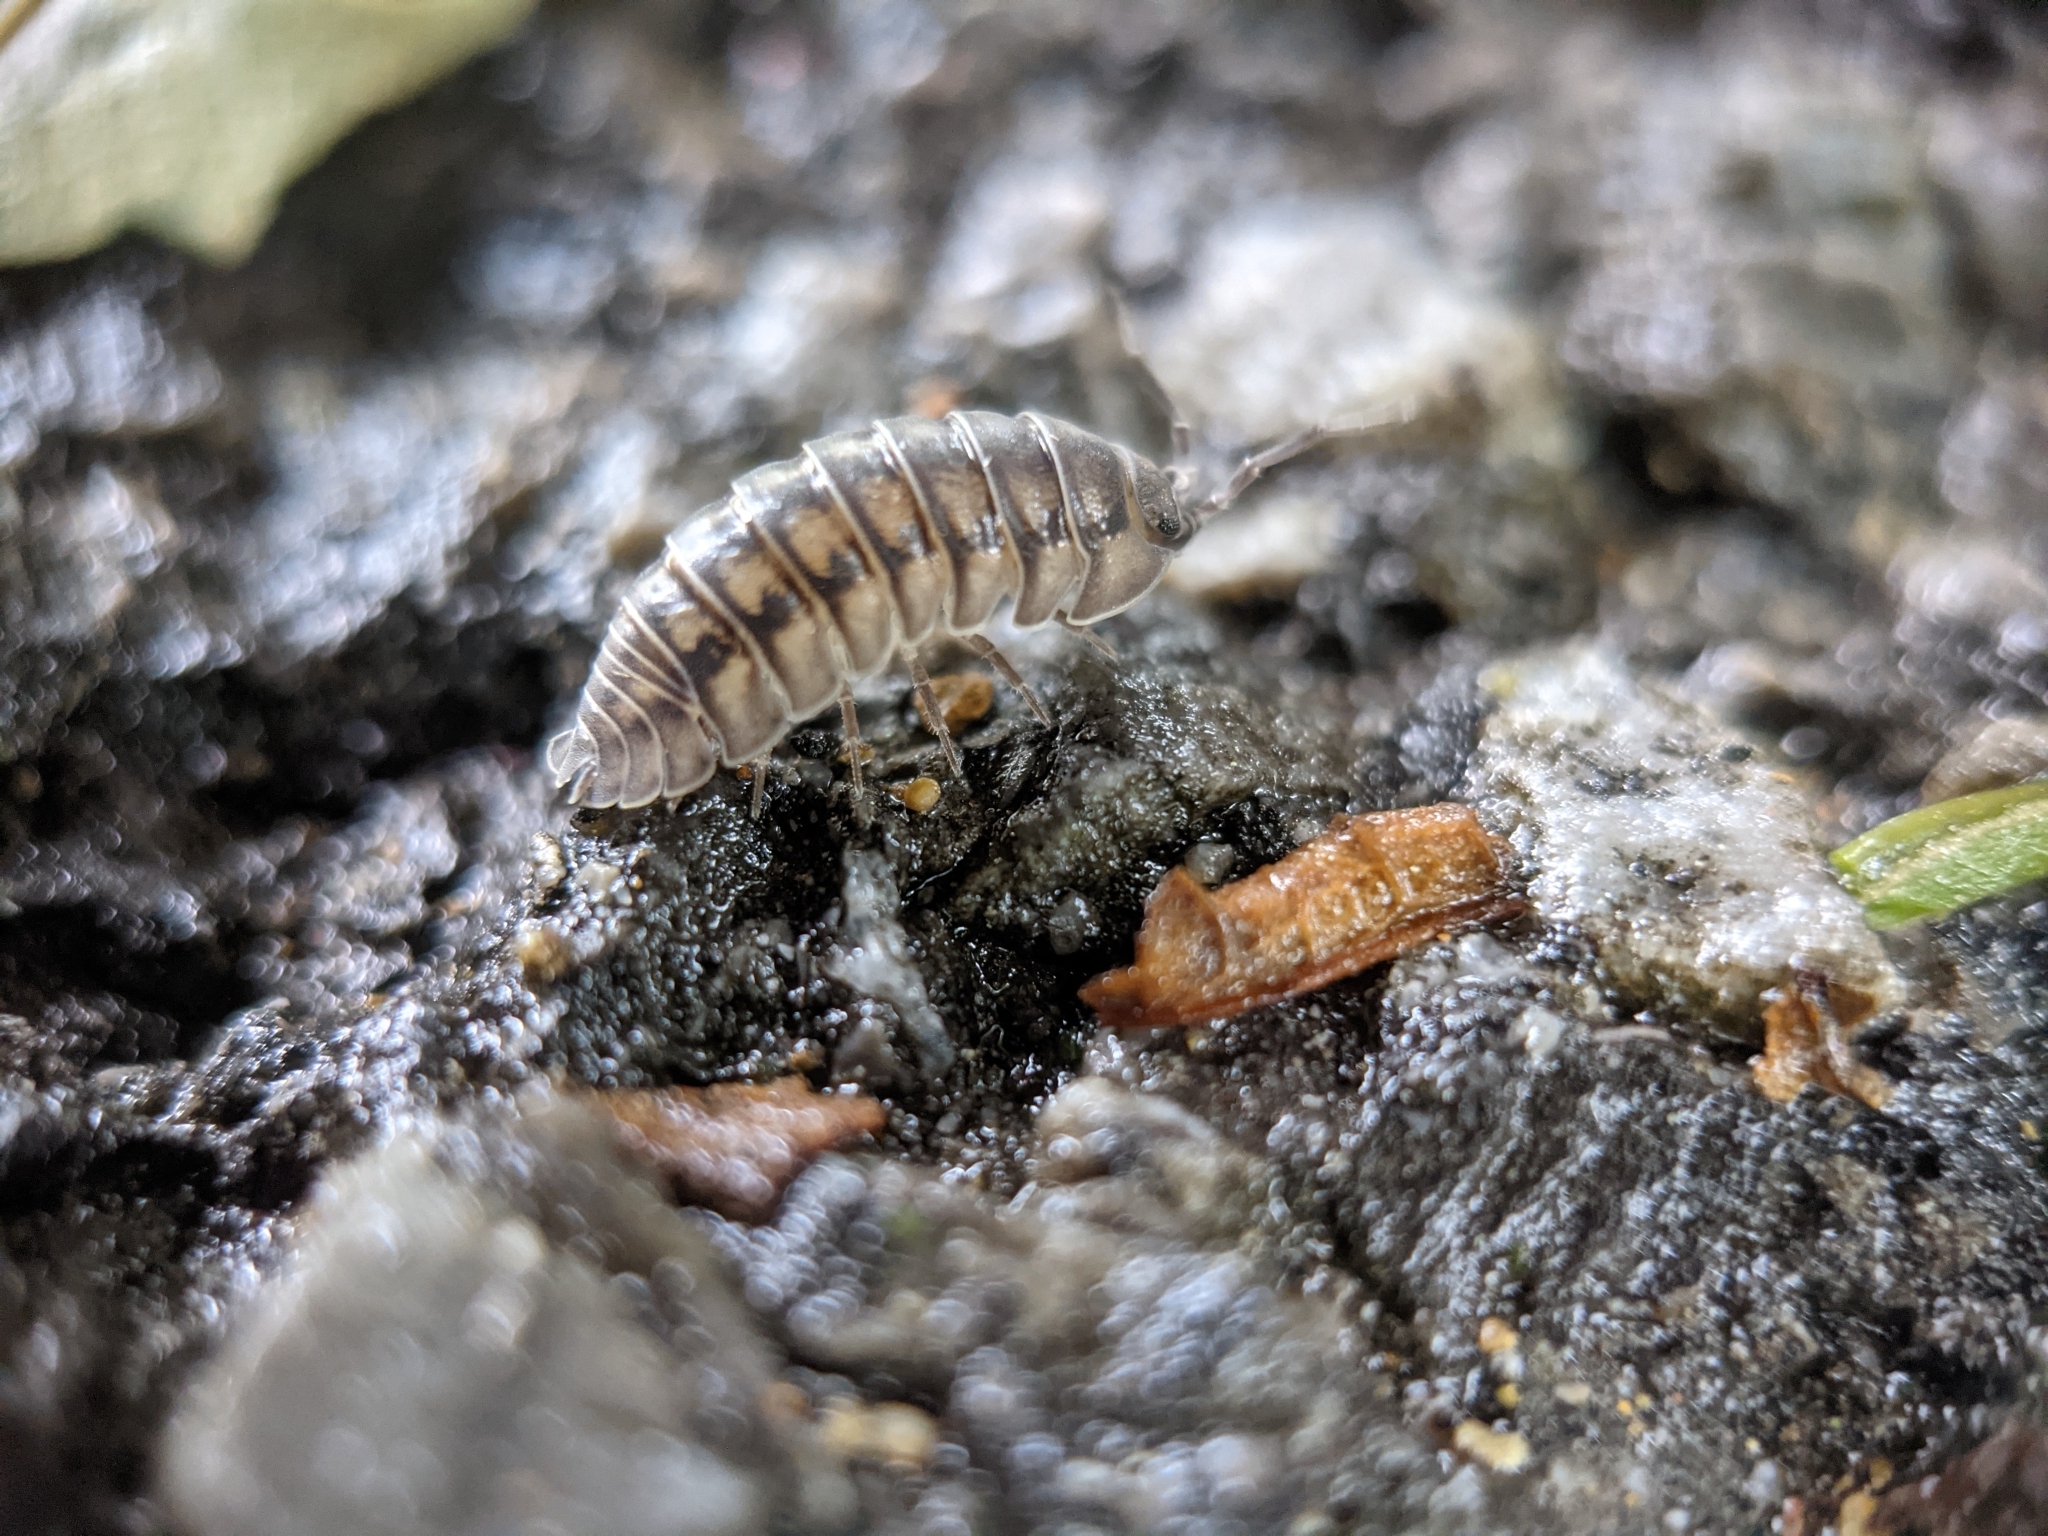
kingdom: Animalia
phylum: Arthropoda
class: Malacostraca
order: Isopoda
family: Armadillidiidae
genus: Armadillidium
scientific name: Armadillidium nasatum
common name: Isopod
